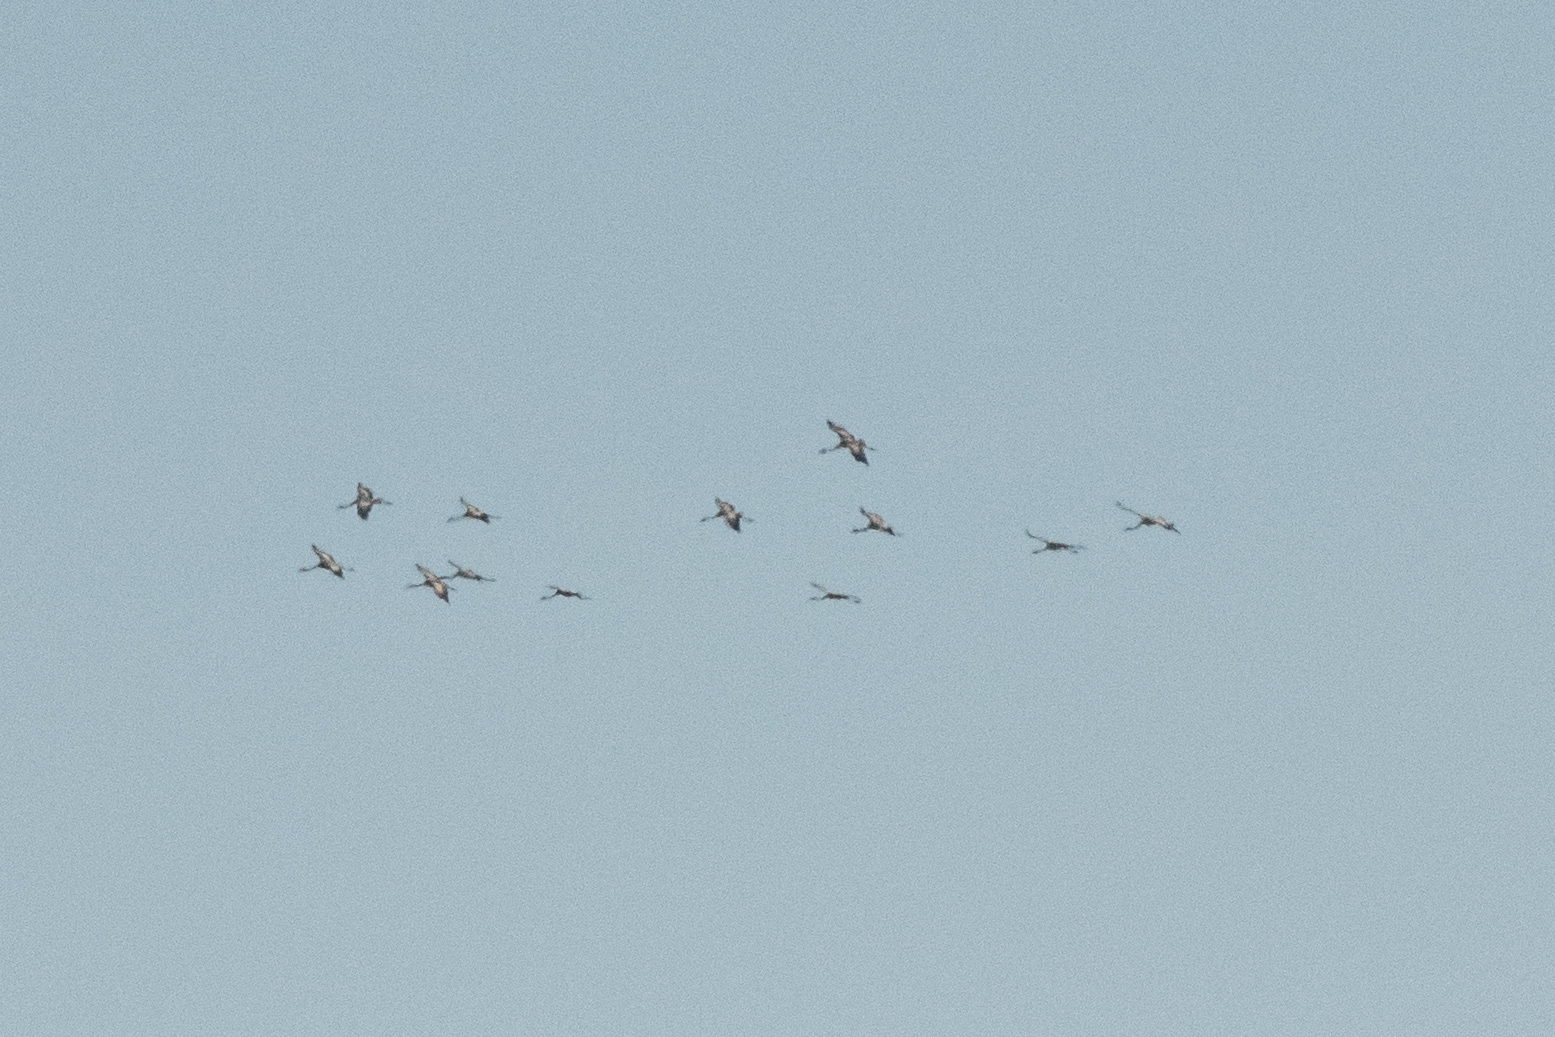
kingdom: Animalia
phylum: Chordata
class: Aves
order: Gruiformes
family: Gruidae
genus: Grus
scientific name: Grus grus
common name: Common crane
